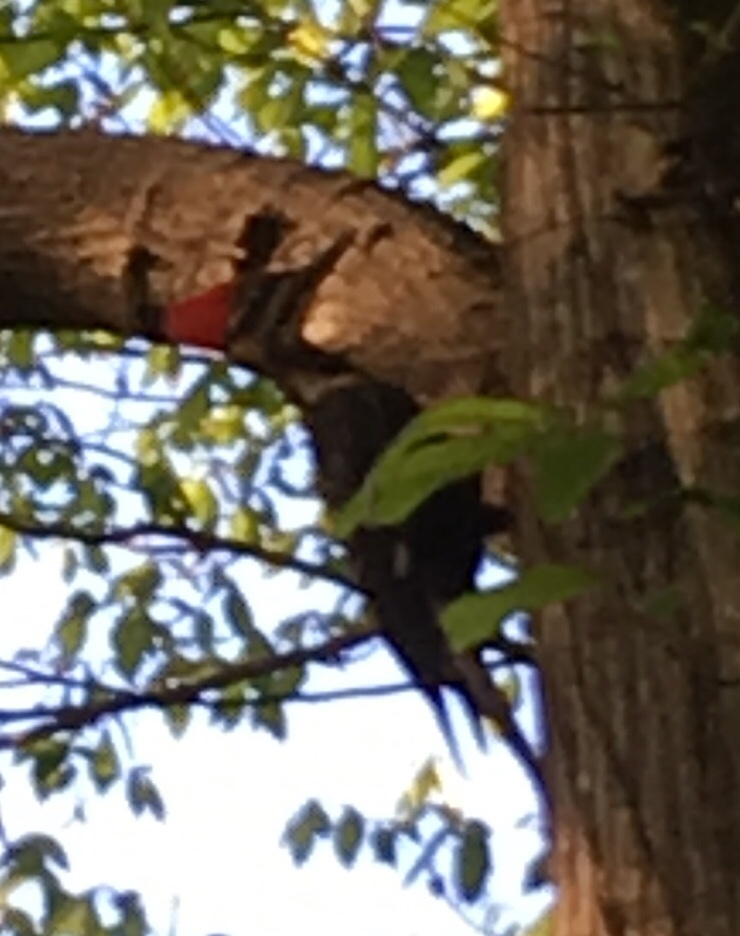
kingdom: Animalia
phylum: Chordata
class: Aves
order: Piciformes
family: Picidae
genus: Dryocopus
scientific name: Dryocopus pileatus
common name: Pileated woodpecker
